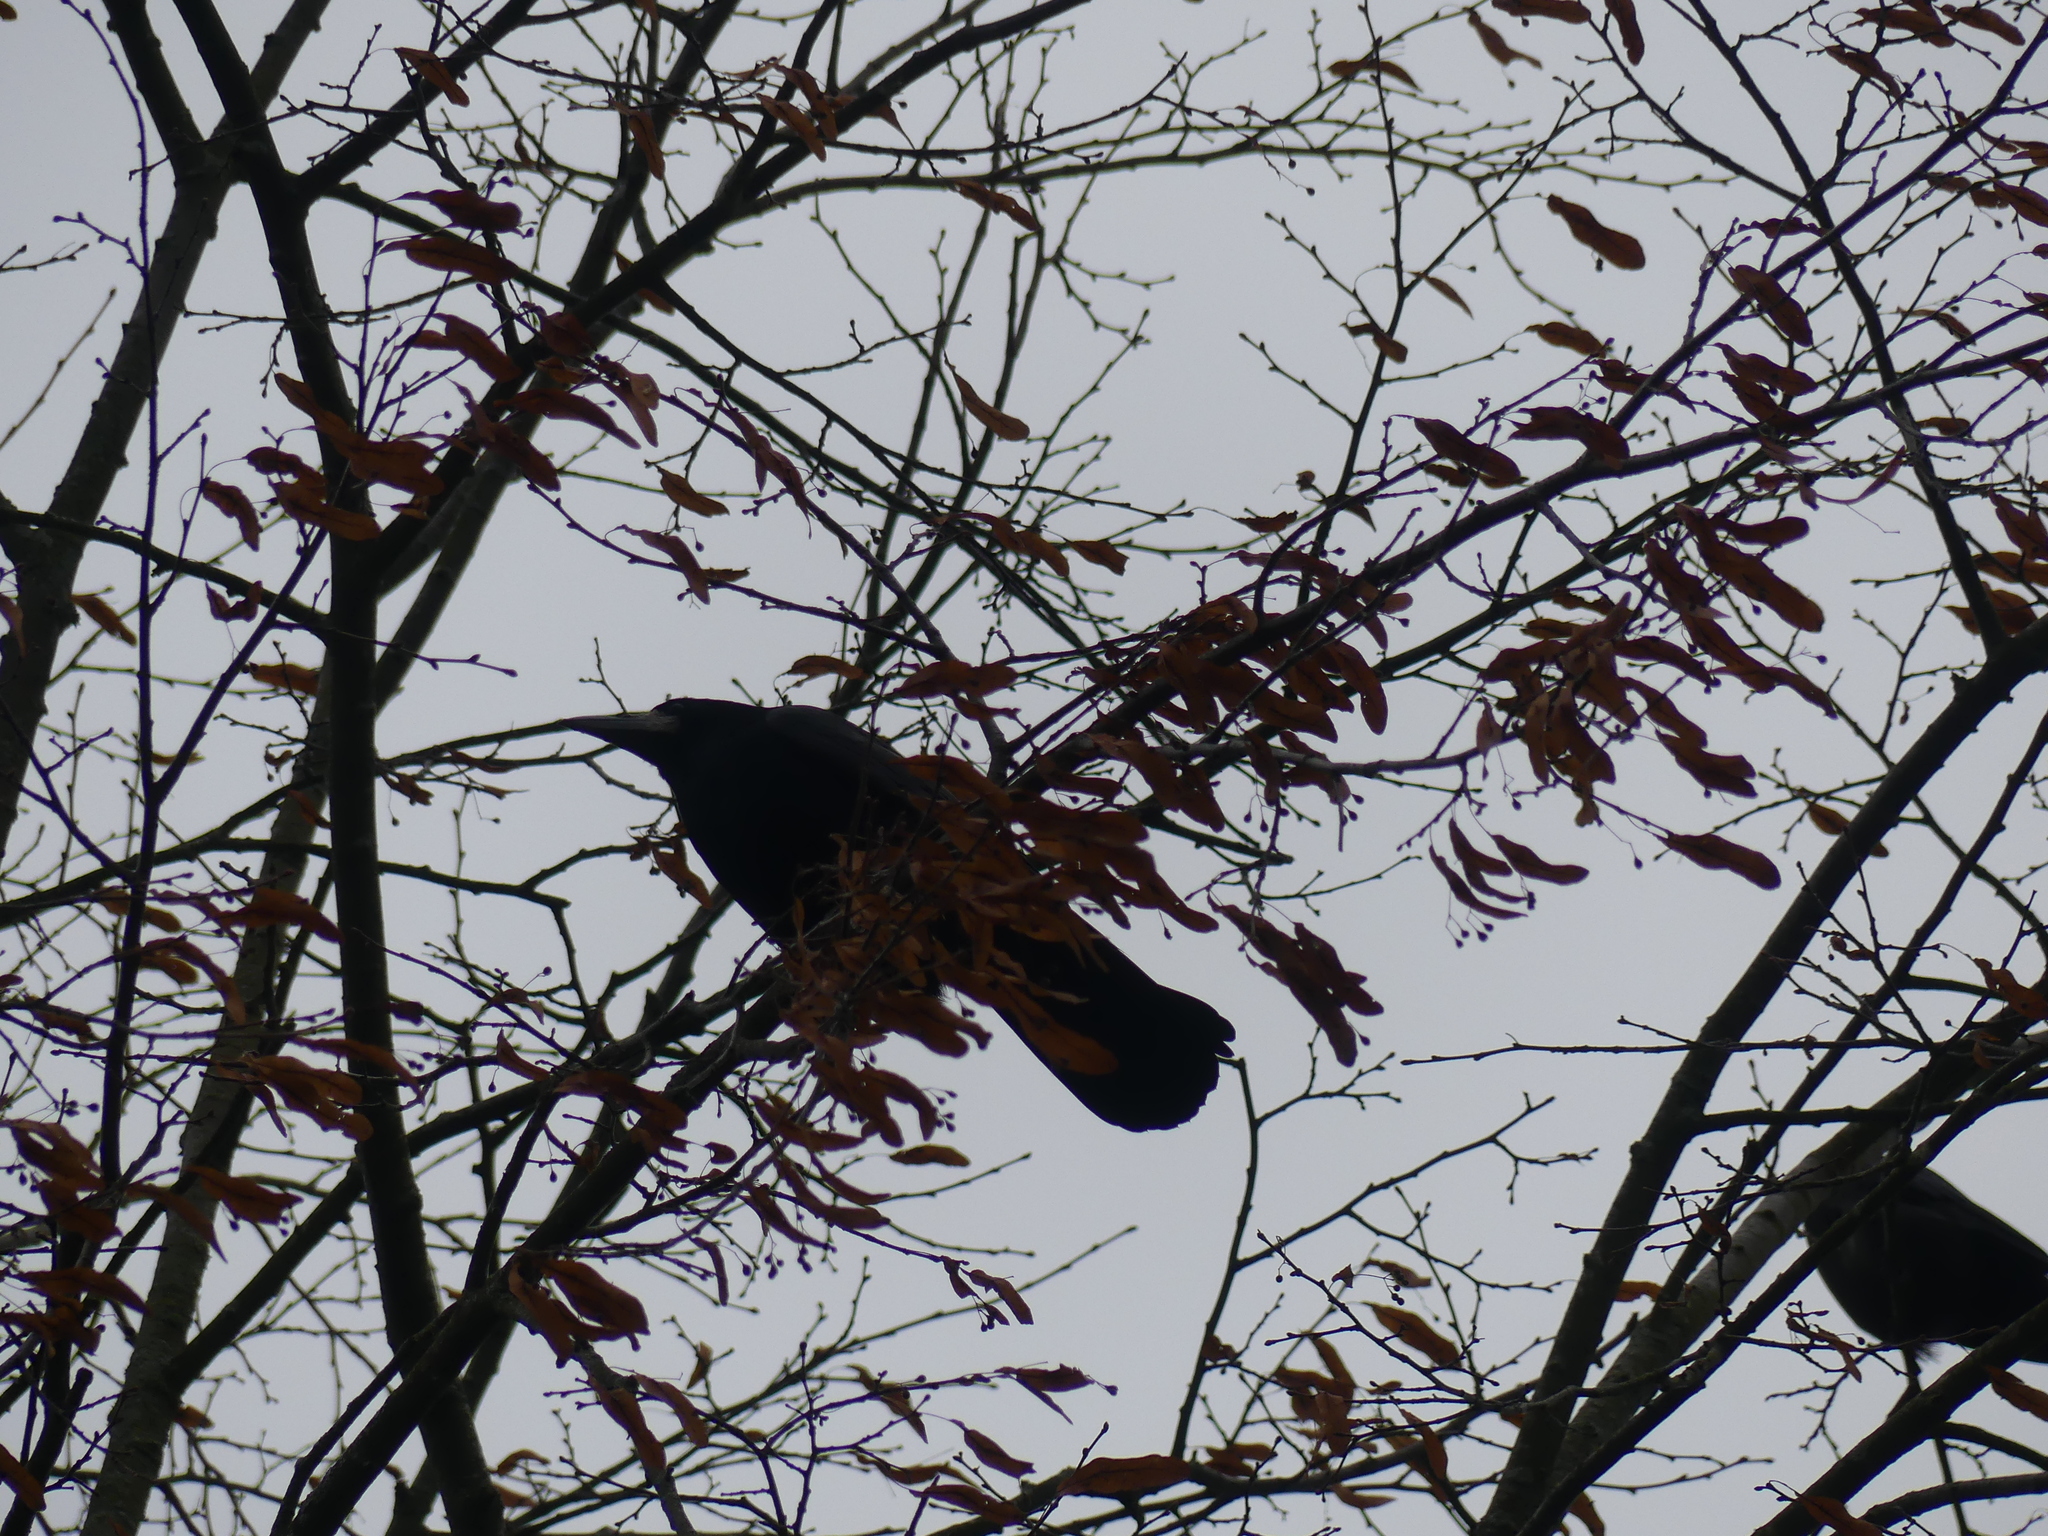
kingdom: Animalia
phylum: Chordata
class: Aves
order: Passeriformes
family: Corvidae
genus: Corvus
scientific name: Corvus frugilegus
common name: Rook
